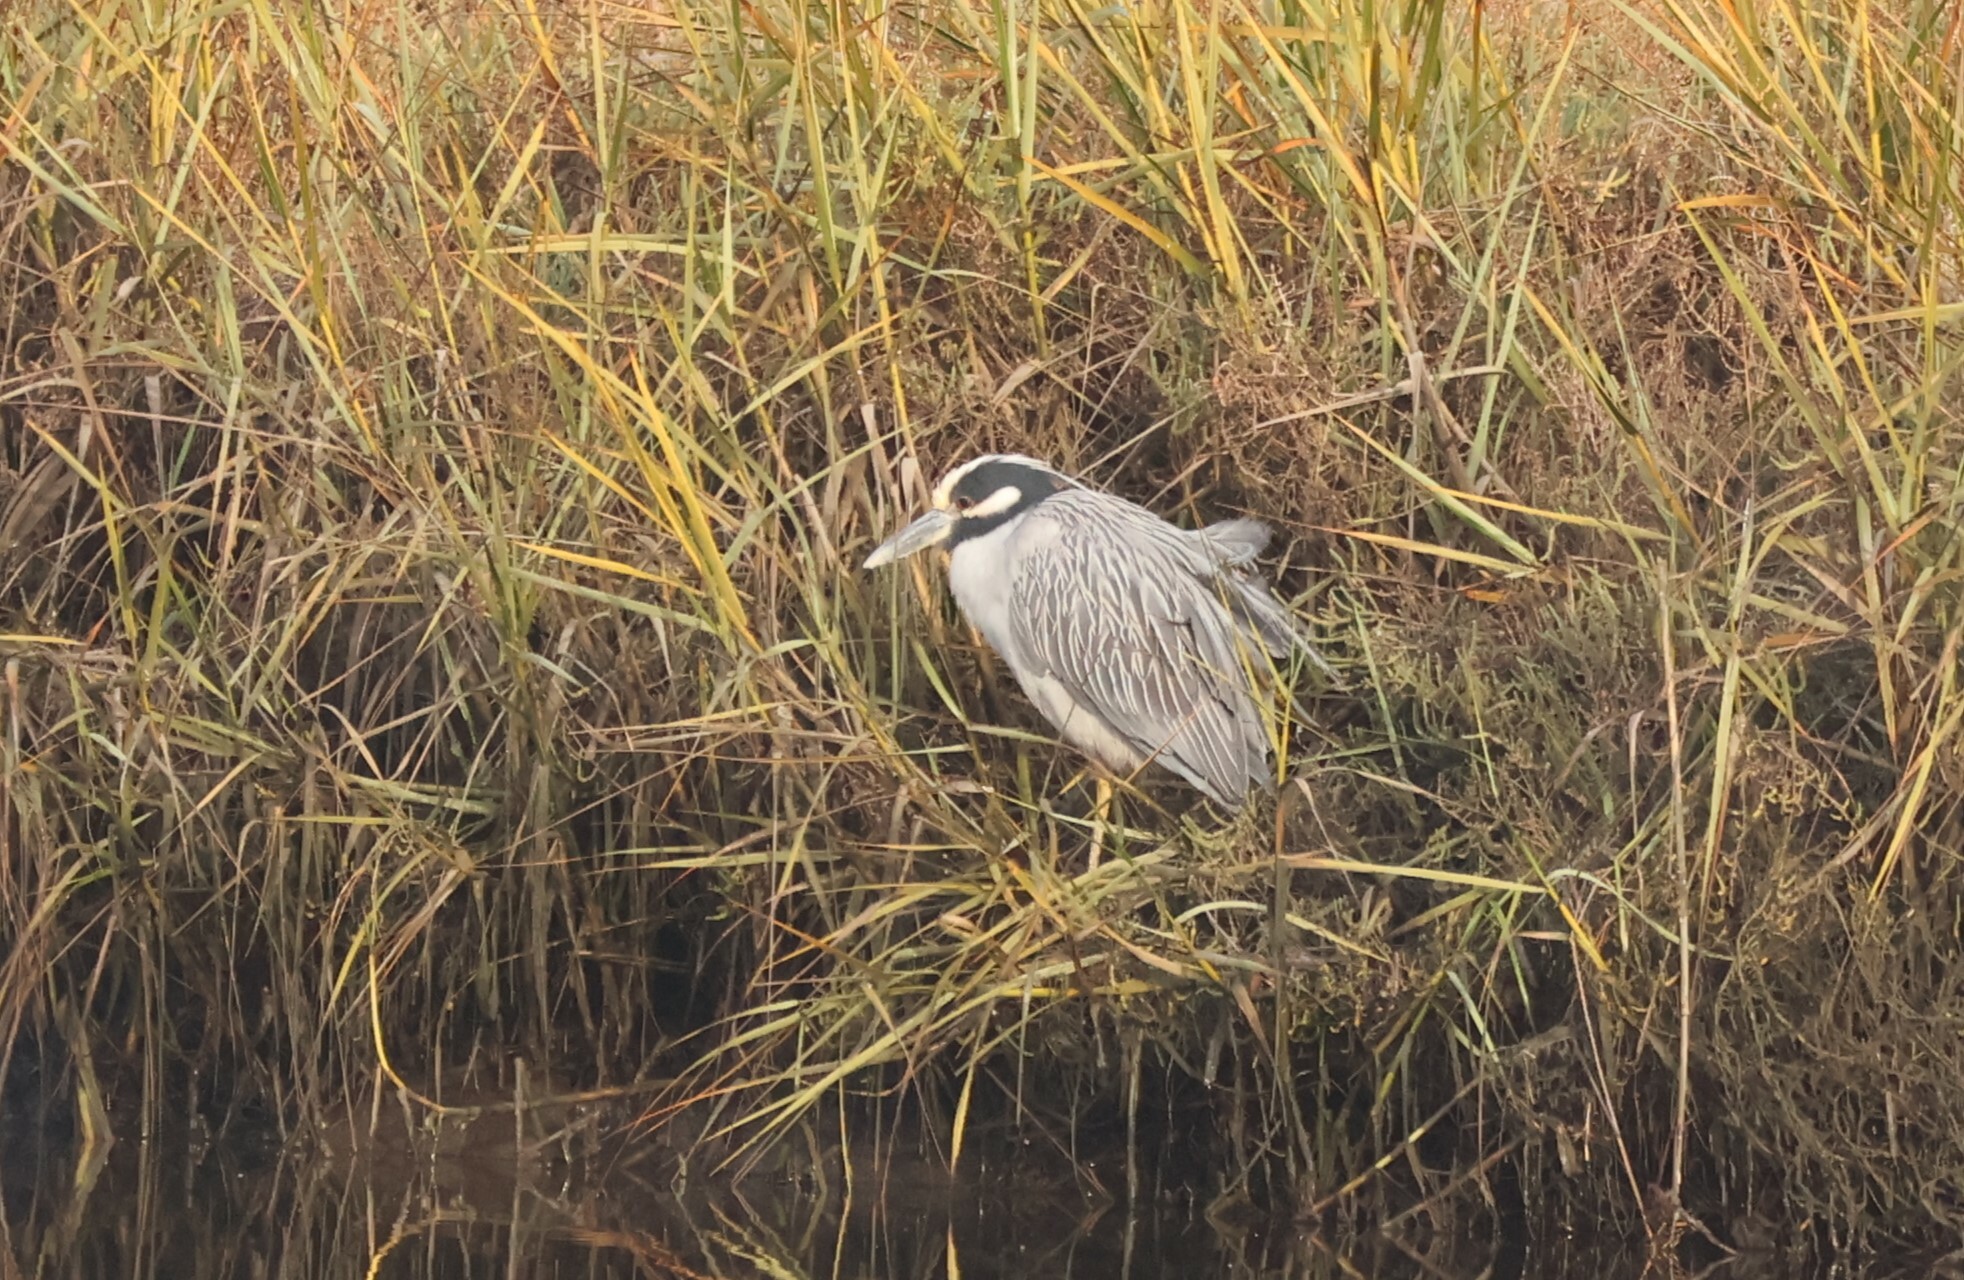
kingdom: Animalia
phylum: Chordata
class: Aves
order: Pelecaniformes
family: Ardeidae
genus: Nyctanassa
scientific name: Nyctanassa violacea
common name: Yellow-crowned night heron
